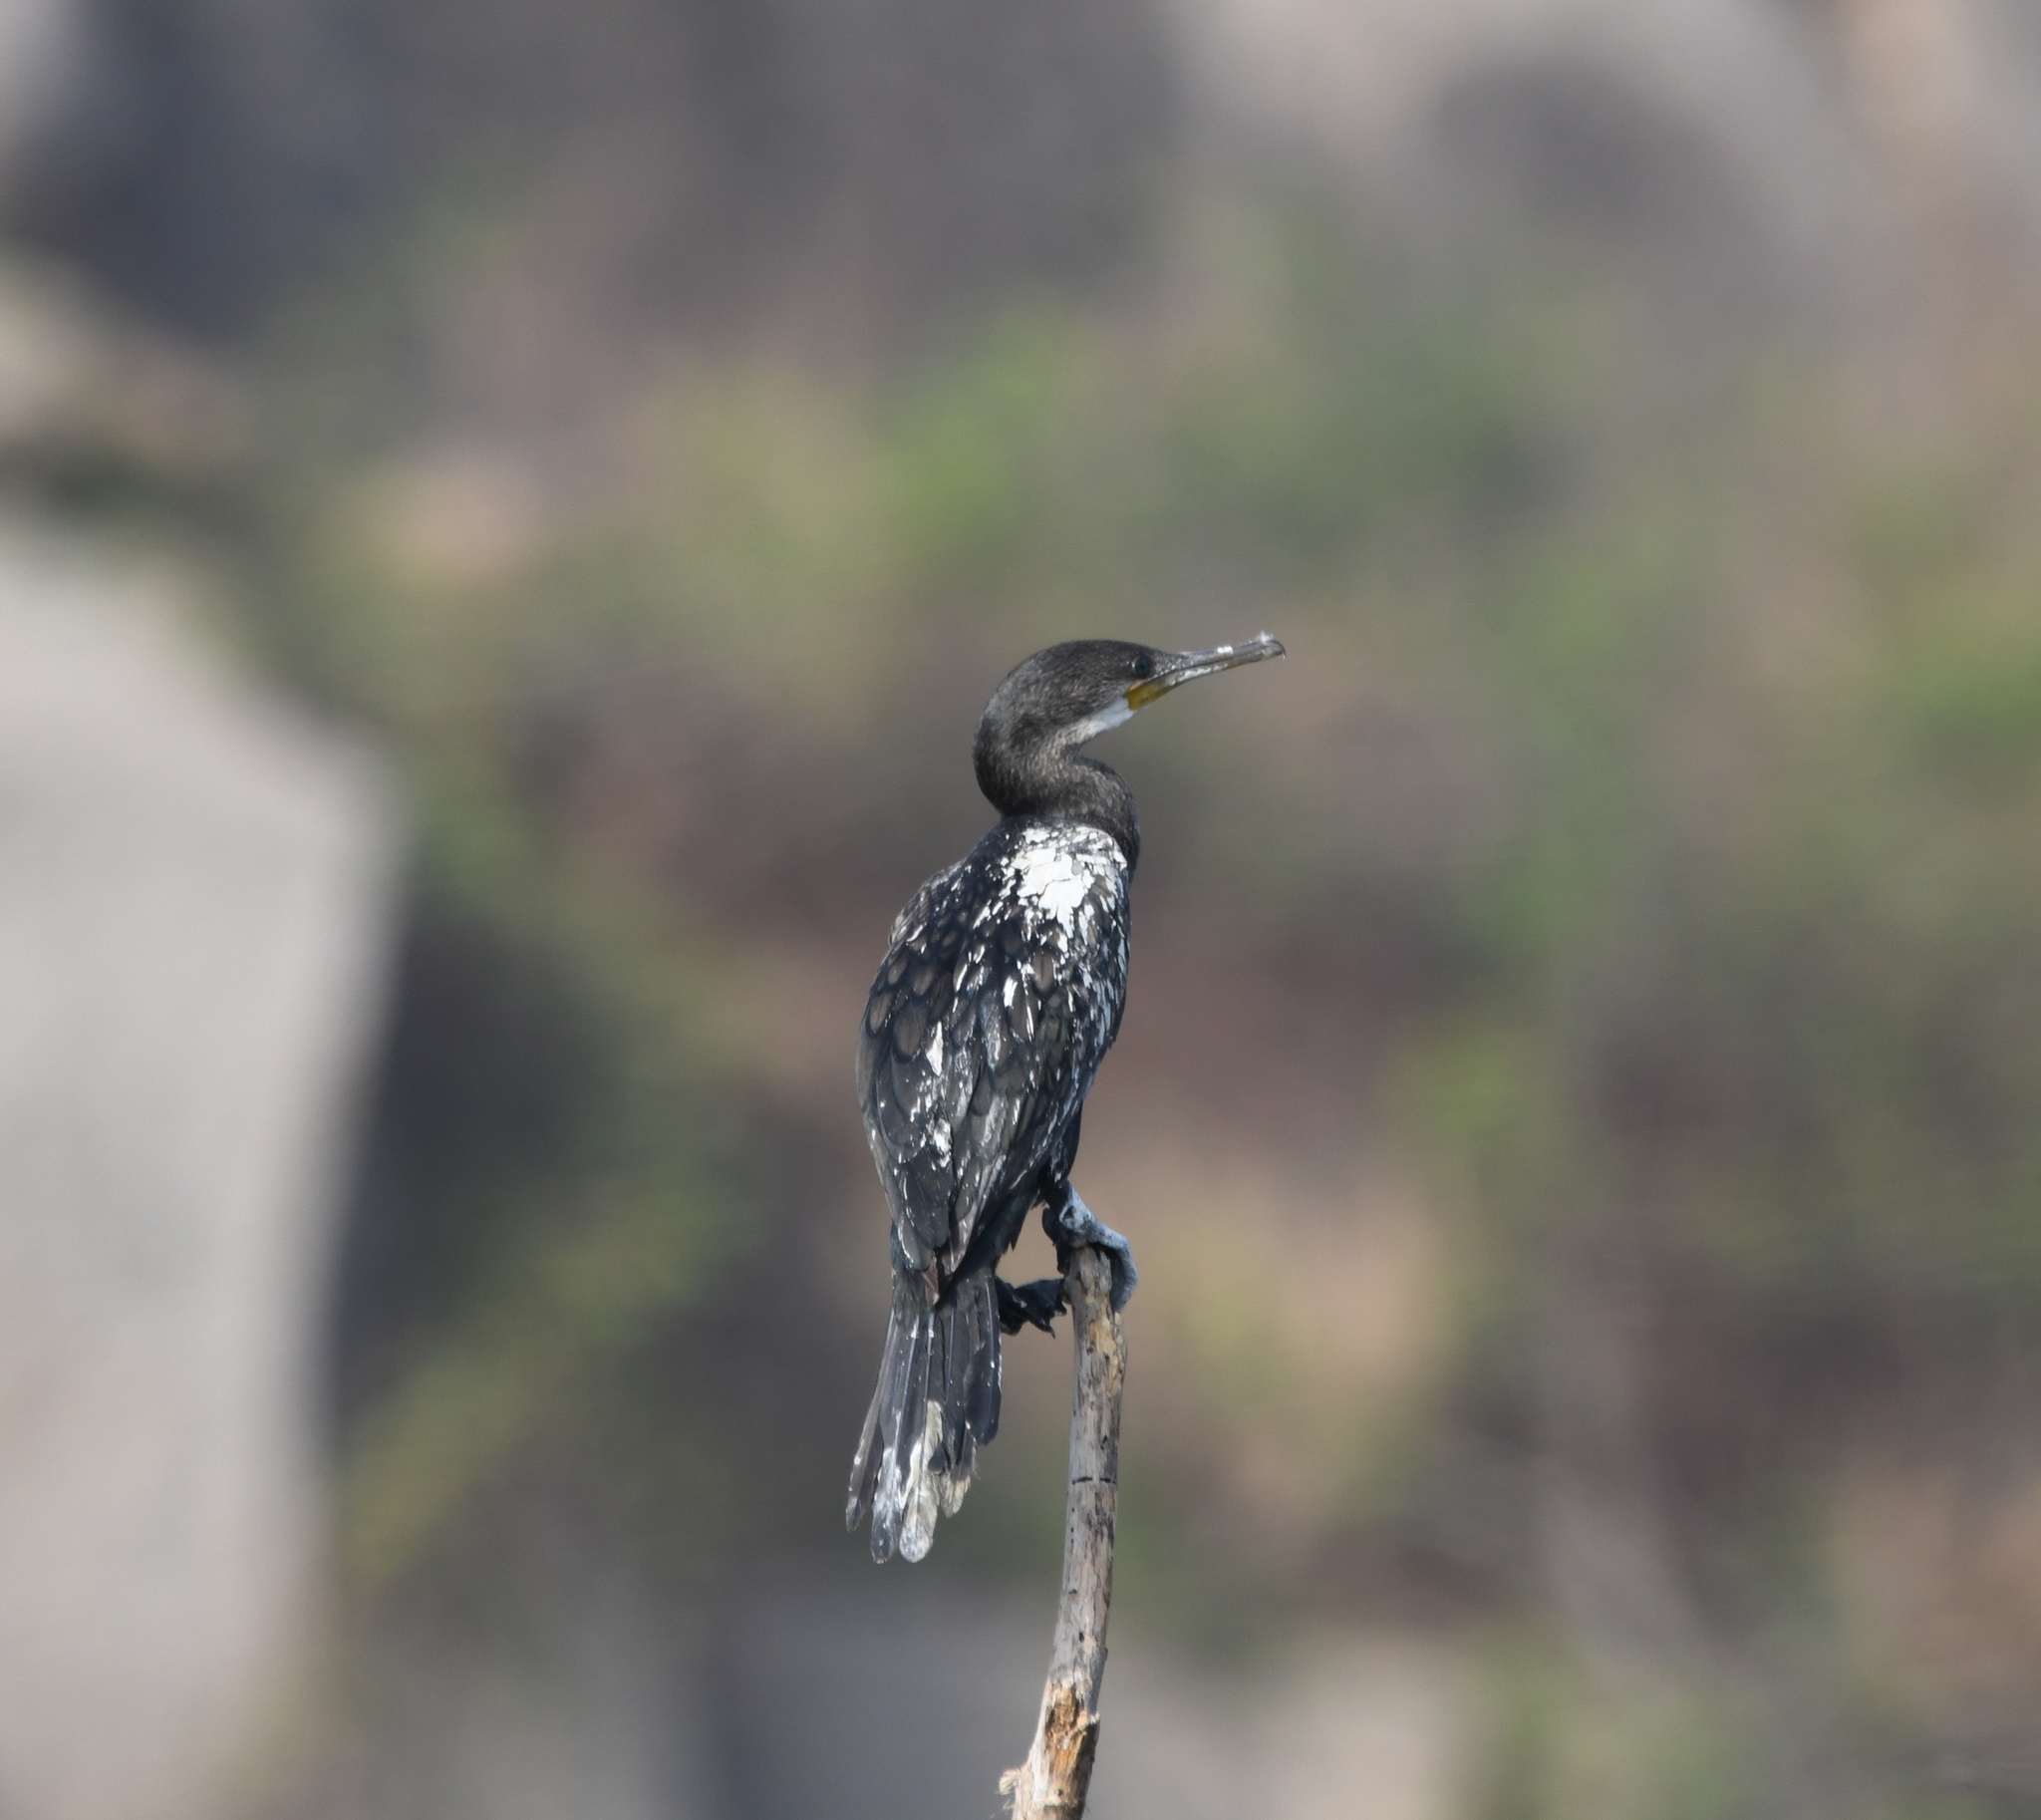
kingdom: Animalia
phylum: Chordata
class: Aves
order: Suliformes
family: Phalacrocoracidae
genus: Phalacrocorax
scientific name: Phalacrocorax fuscicollis
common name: Indian cormorant
